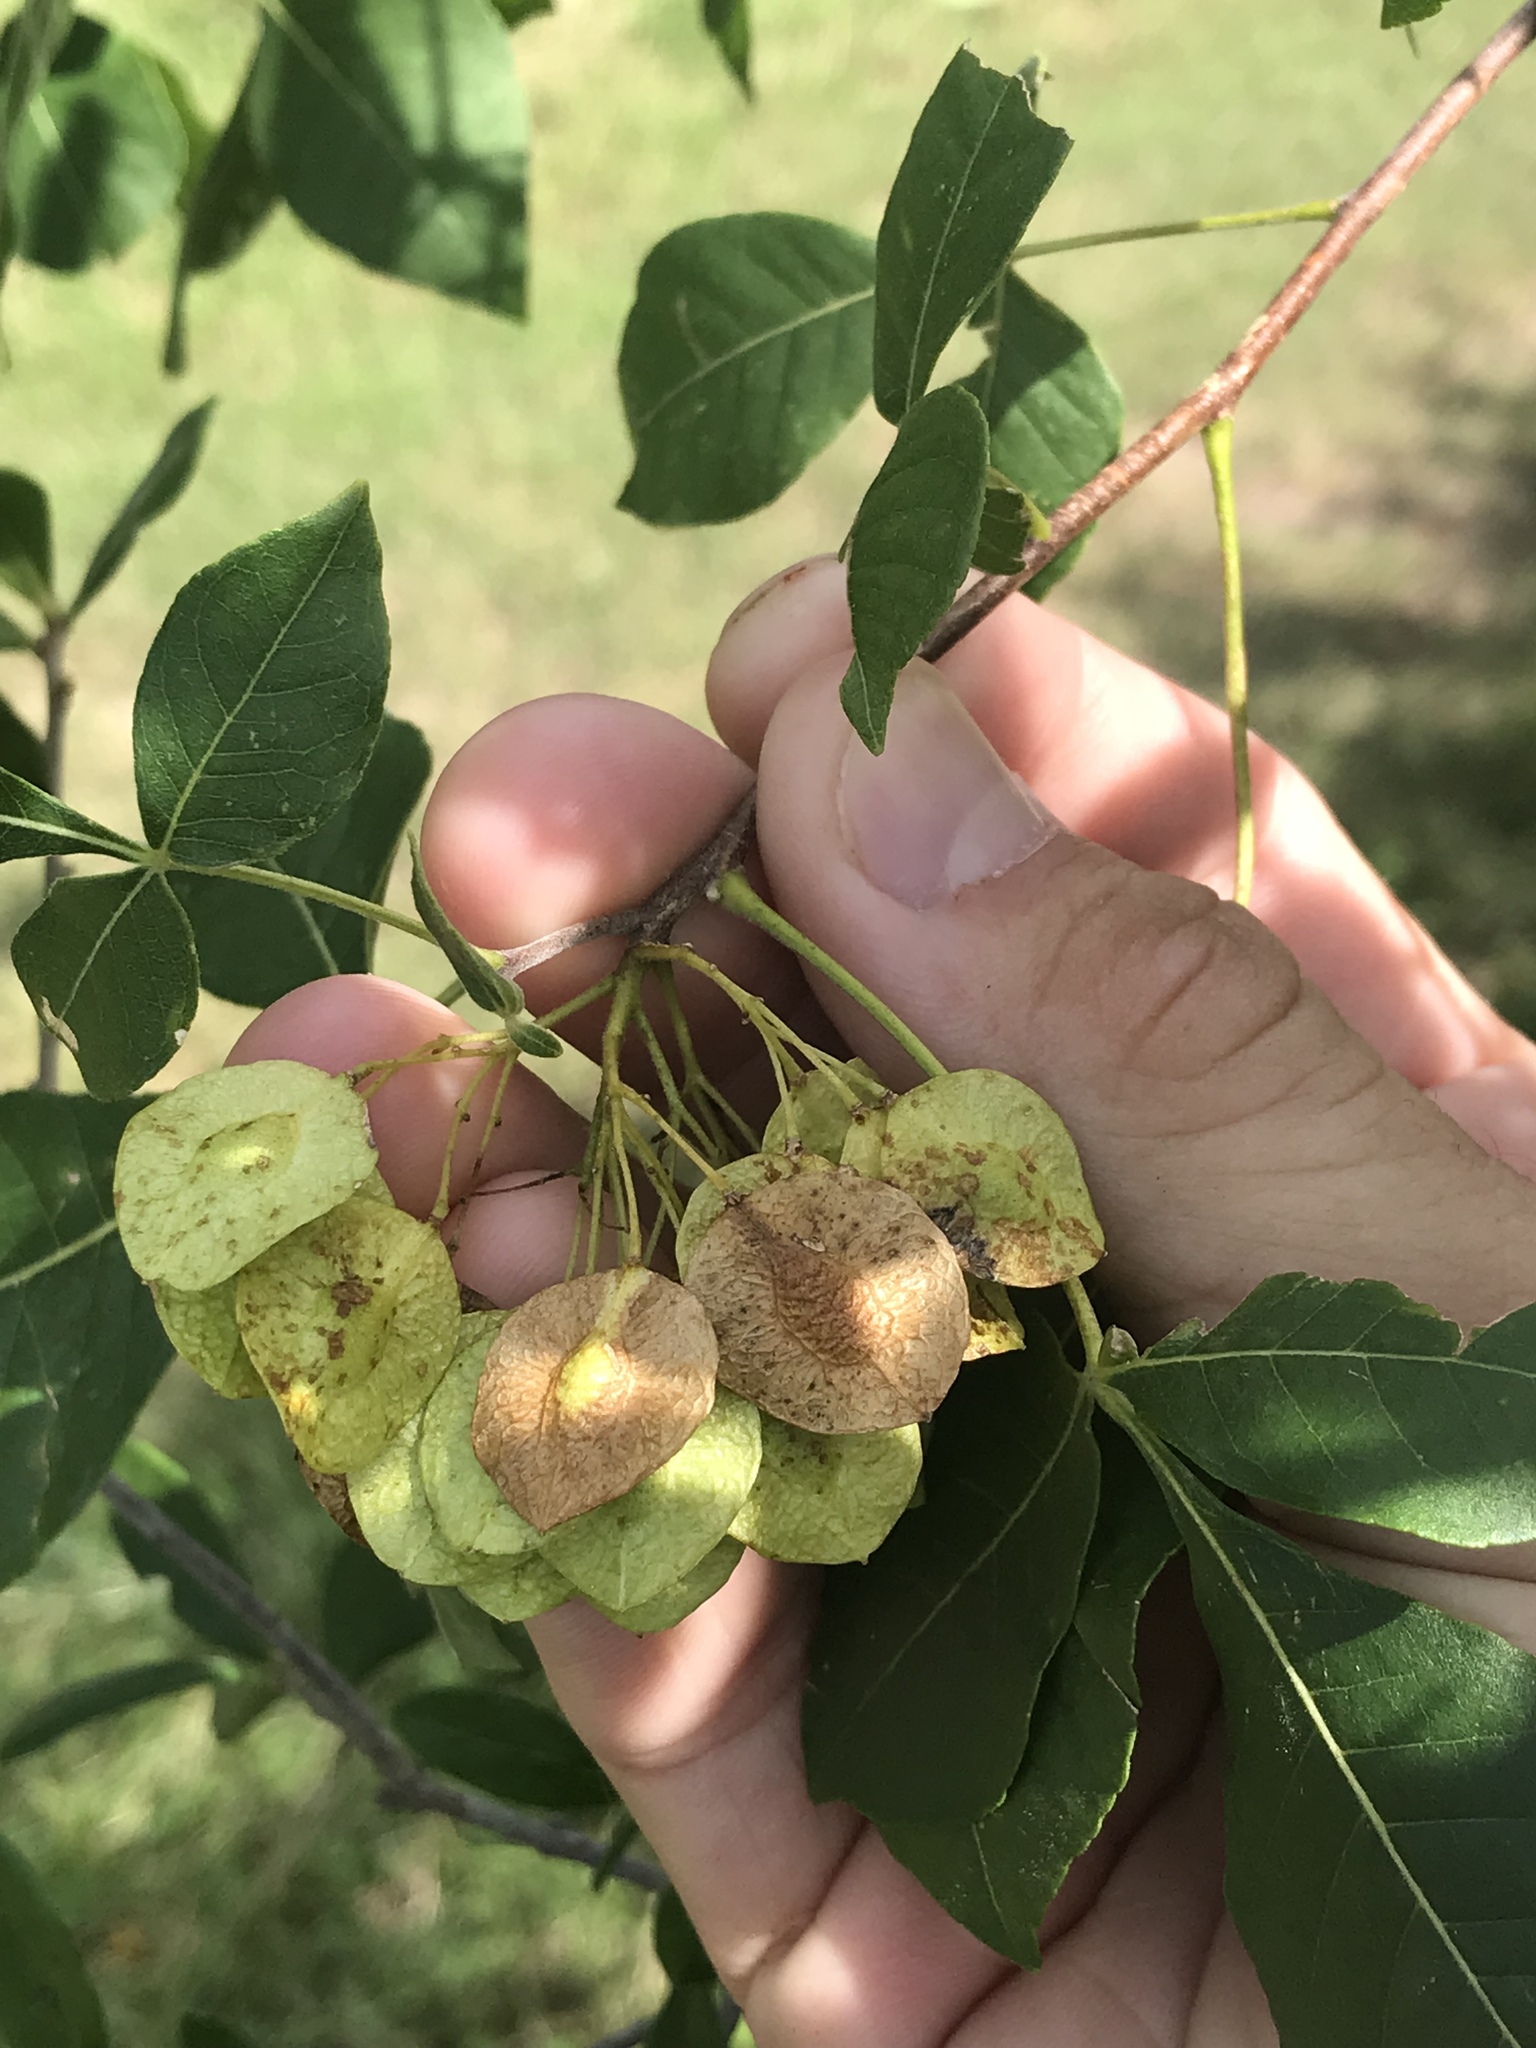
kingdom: Plantae
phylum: Tracheophyta
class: Magnoliopsida
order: Sapindales
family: Rutaceae
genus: Ptelea
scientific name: Ptelea trifoliata
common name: Common hop-tree
